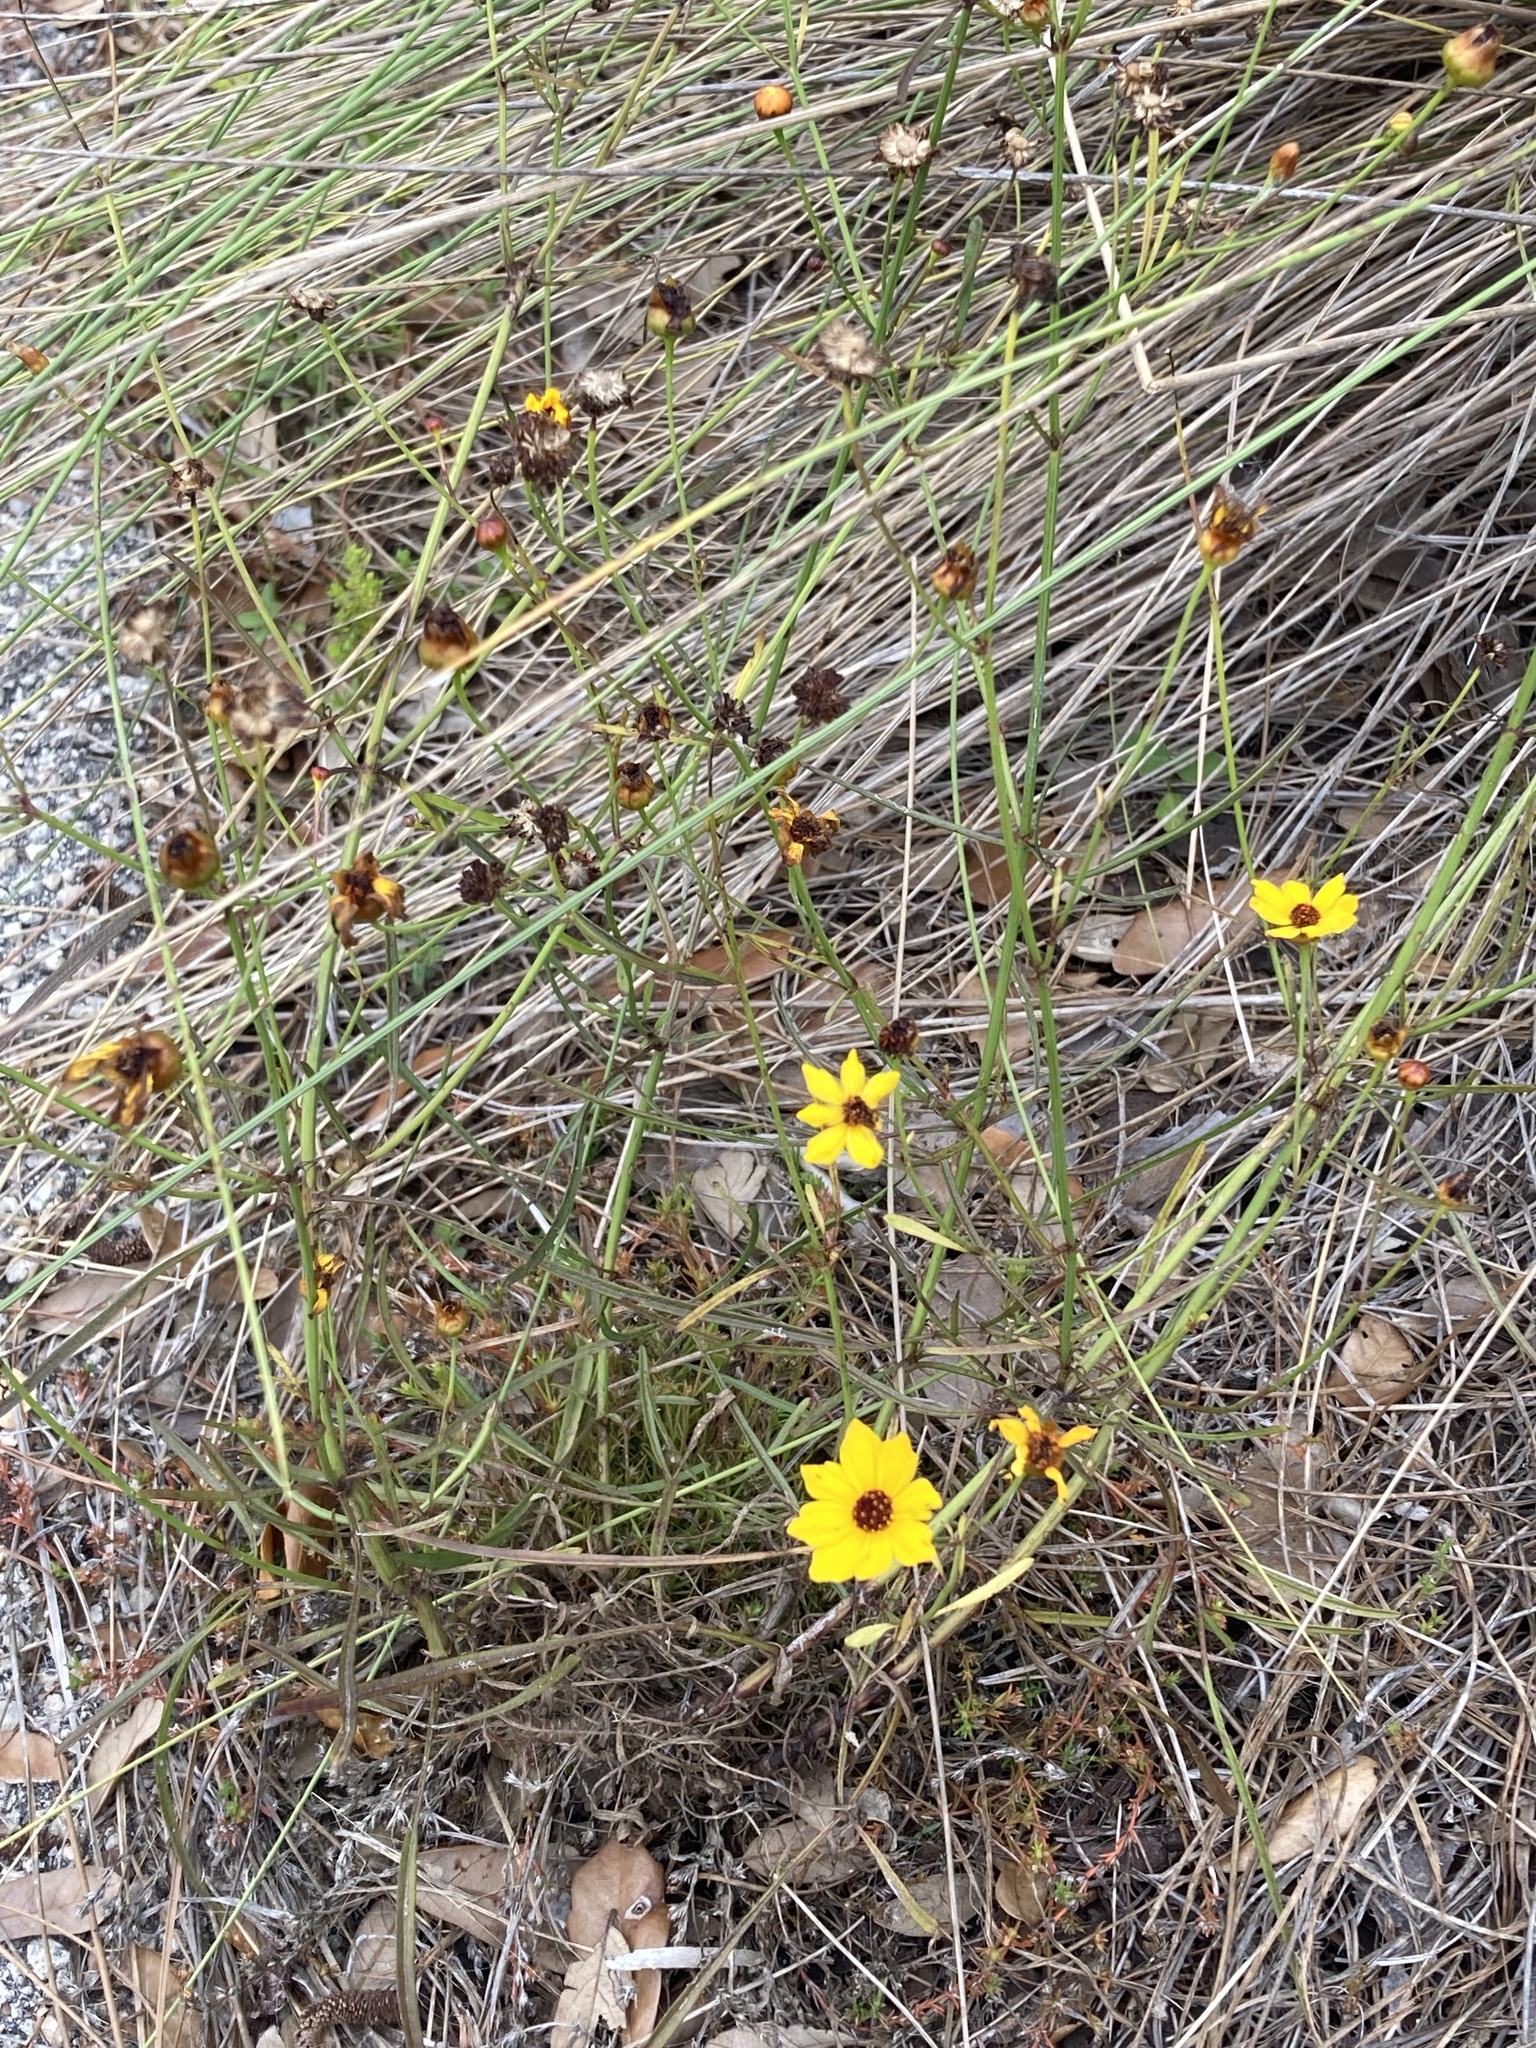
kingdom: Plantae
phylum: Tracheophyta
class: Magnoliopsida
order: Asterales
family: Asteraceae
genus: Coreopsis
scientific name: Coreopsis leavenworthii
